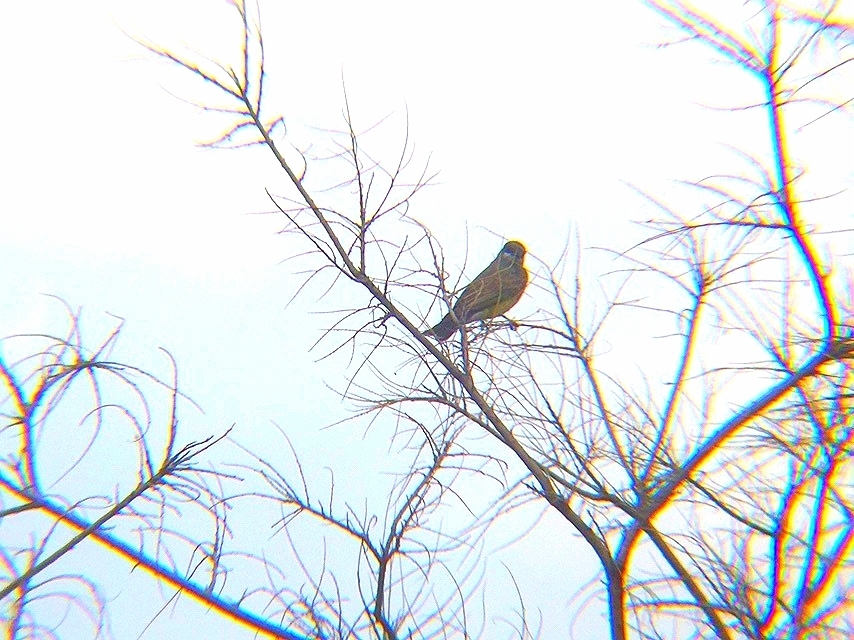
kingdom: Animalia
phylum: Chordata
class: Aves
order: Passeriformes
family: Tyrannidae
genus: Tyrannus
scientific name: Tyrannus vociferans
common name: Cassin's kingbird
